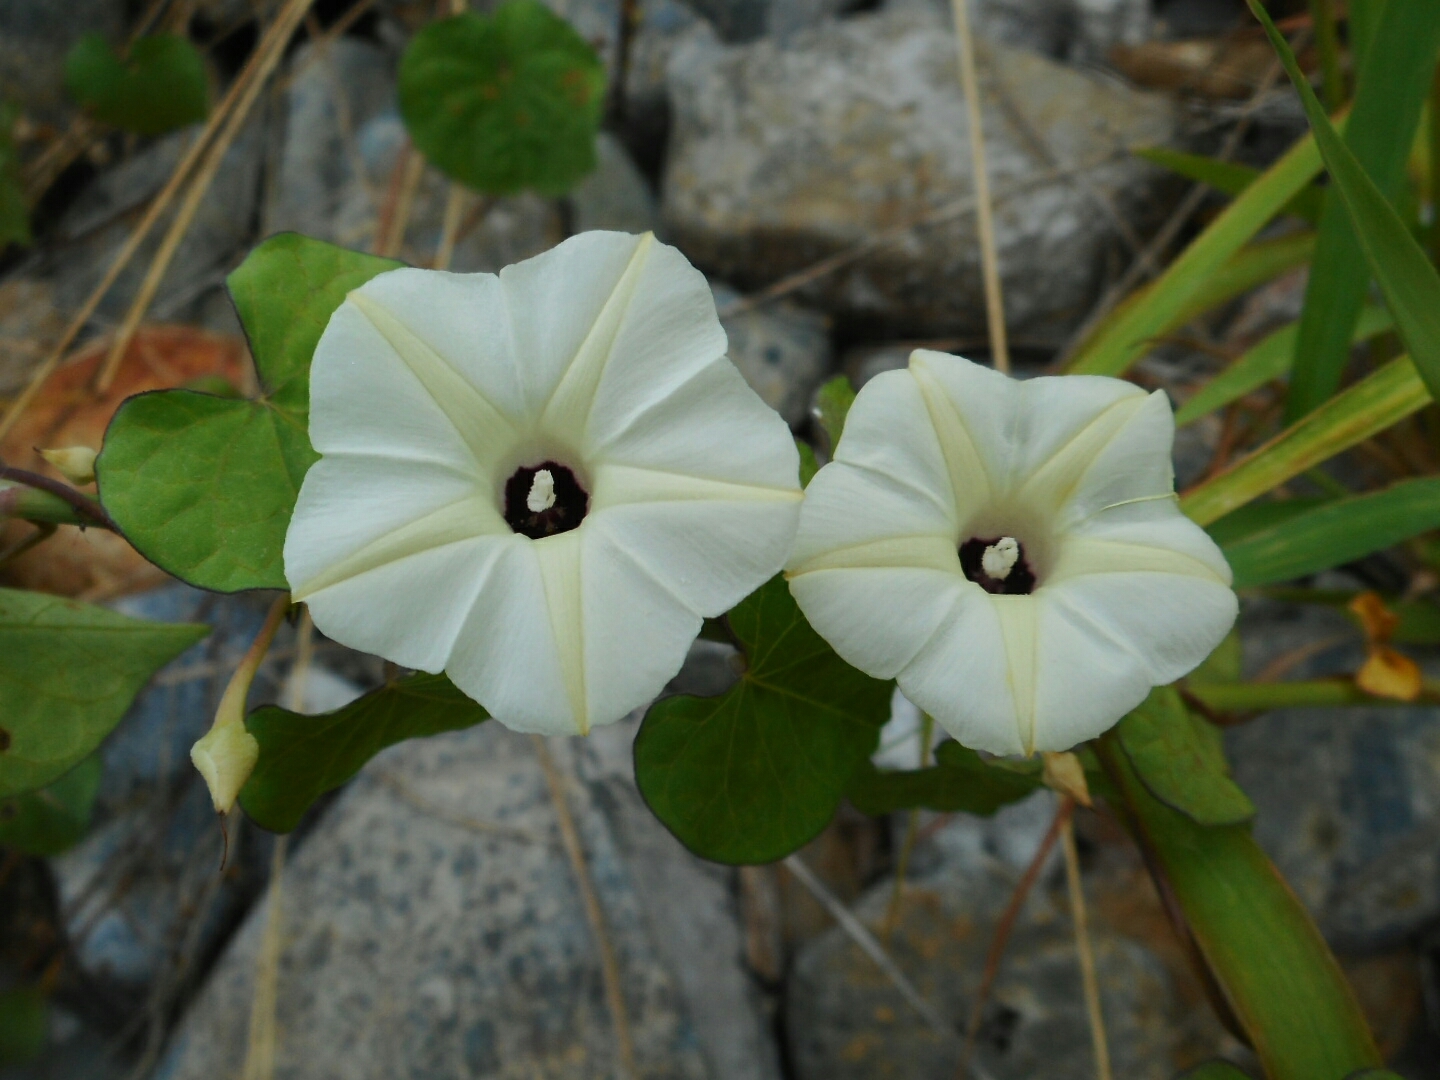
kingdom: Plantae
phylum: Tracheophyta
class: Magnoliopsida
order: Solanales
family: Convolvulaceae
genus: Ipomoea
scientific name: Ipomoea obscura
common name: Obscure morning-glory
